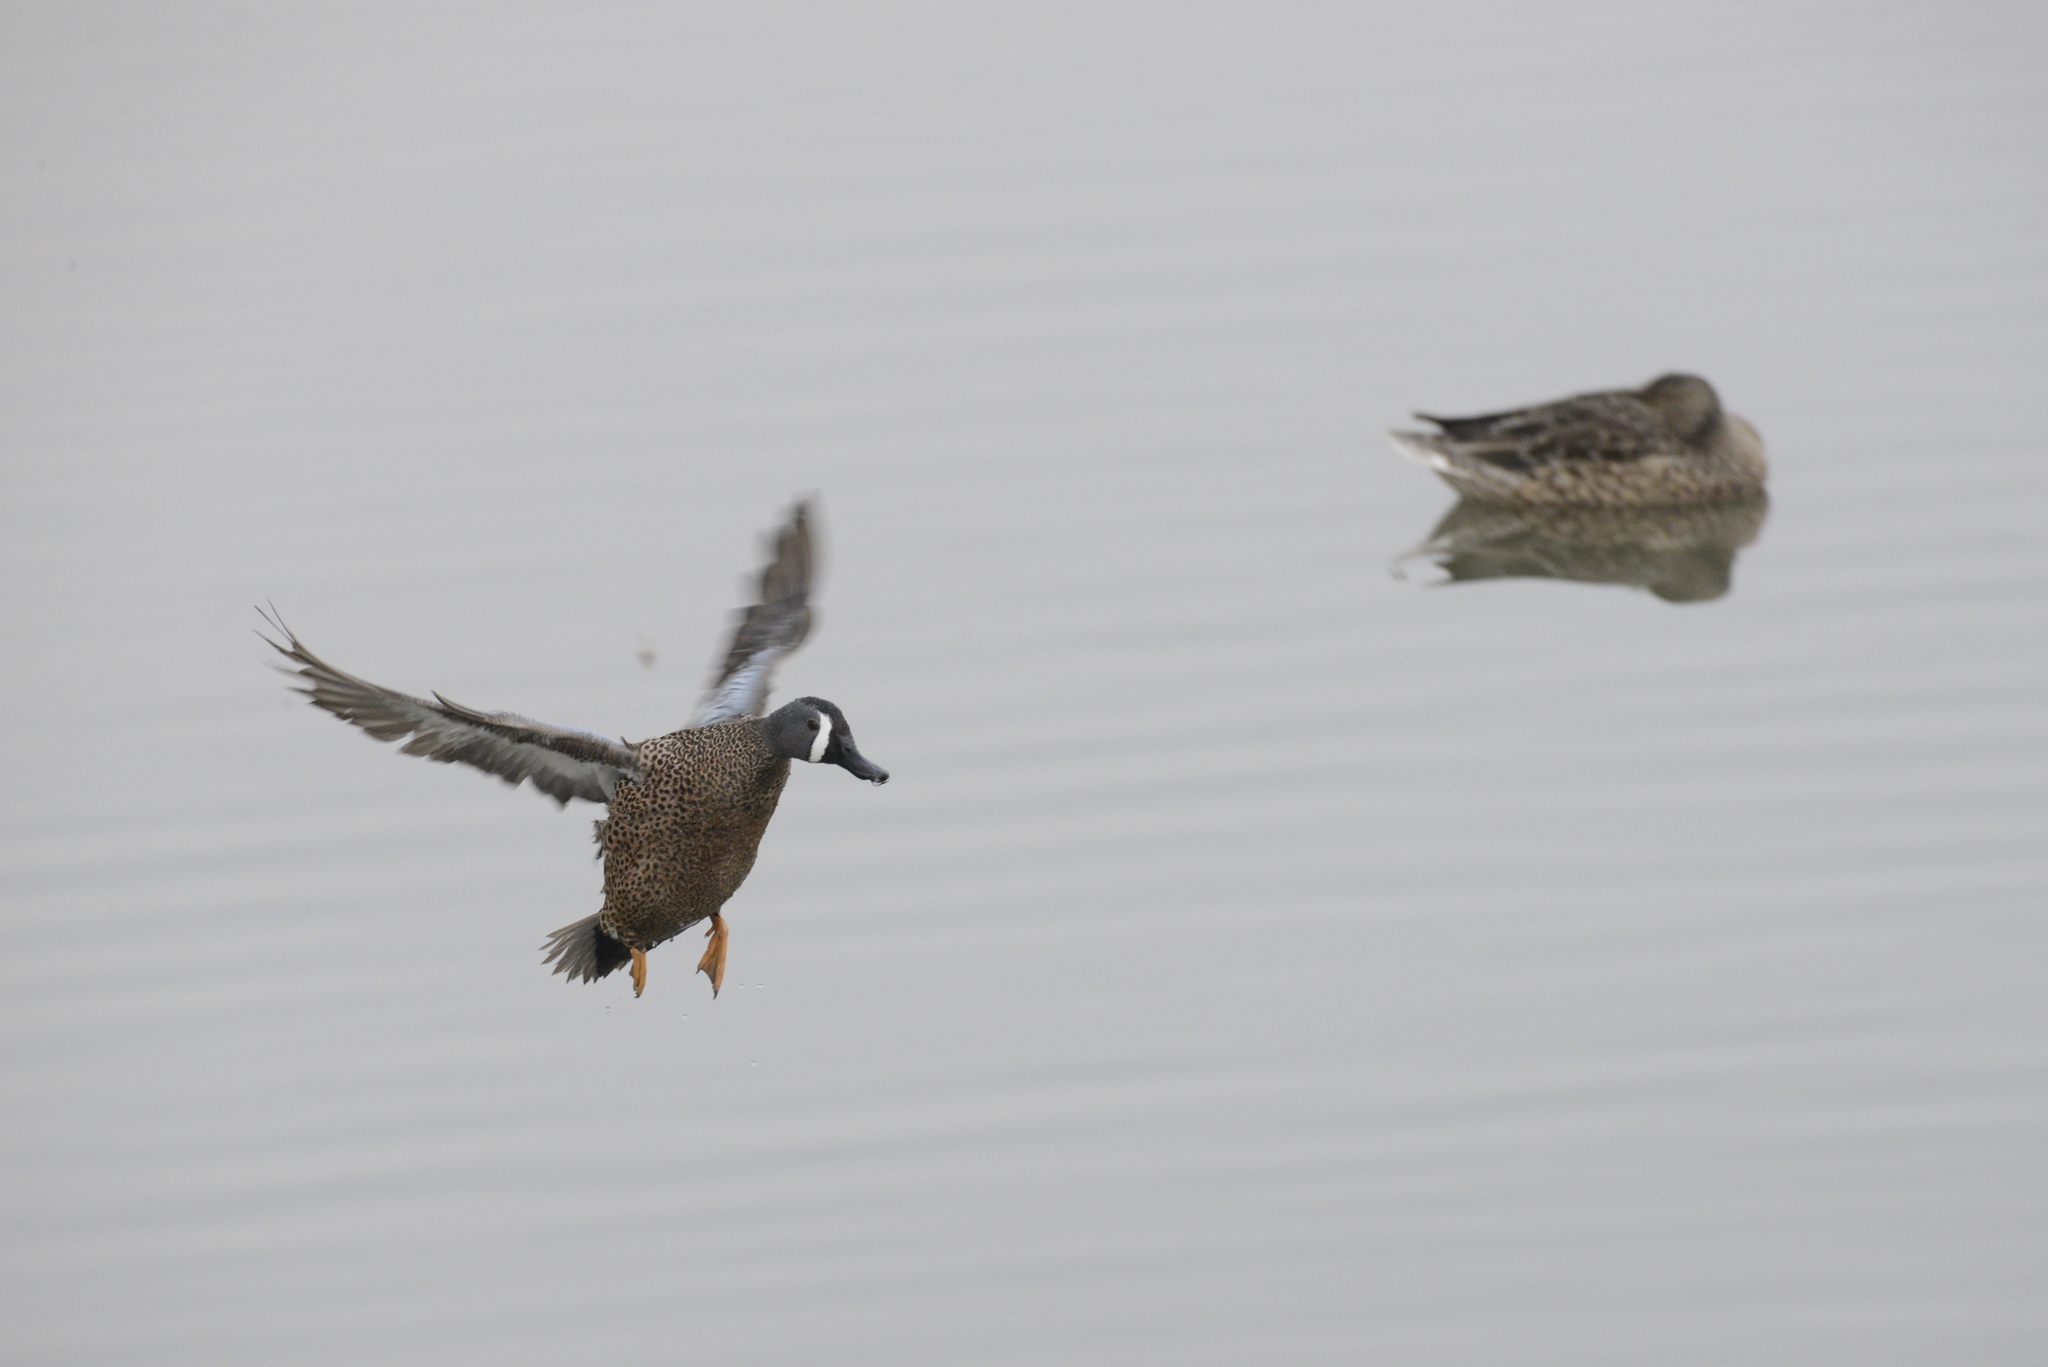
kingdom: Animalia
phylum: Chordata
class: Aves
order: Anseriformes
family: Anatidae
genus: Spatula
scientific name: Spatula discors
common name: Blue-winged teal
